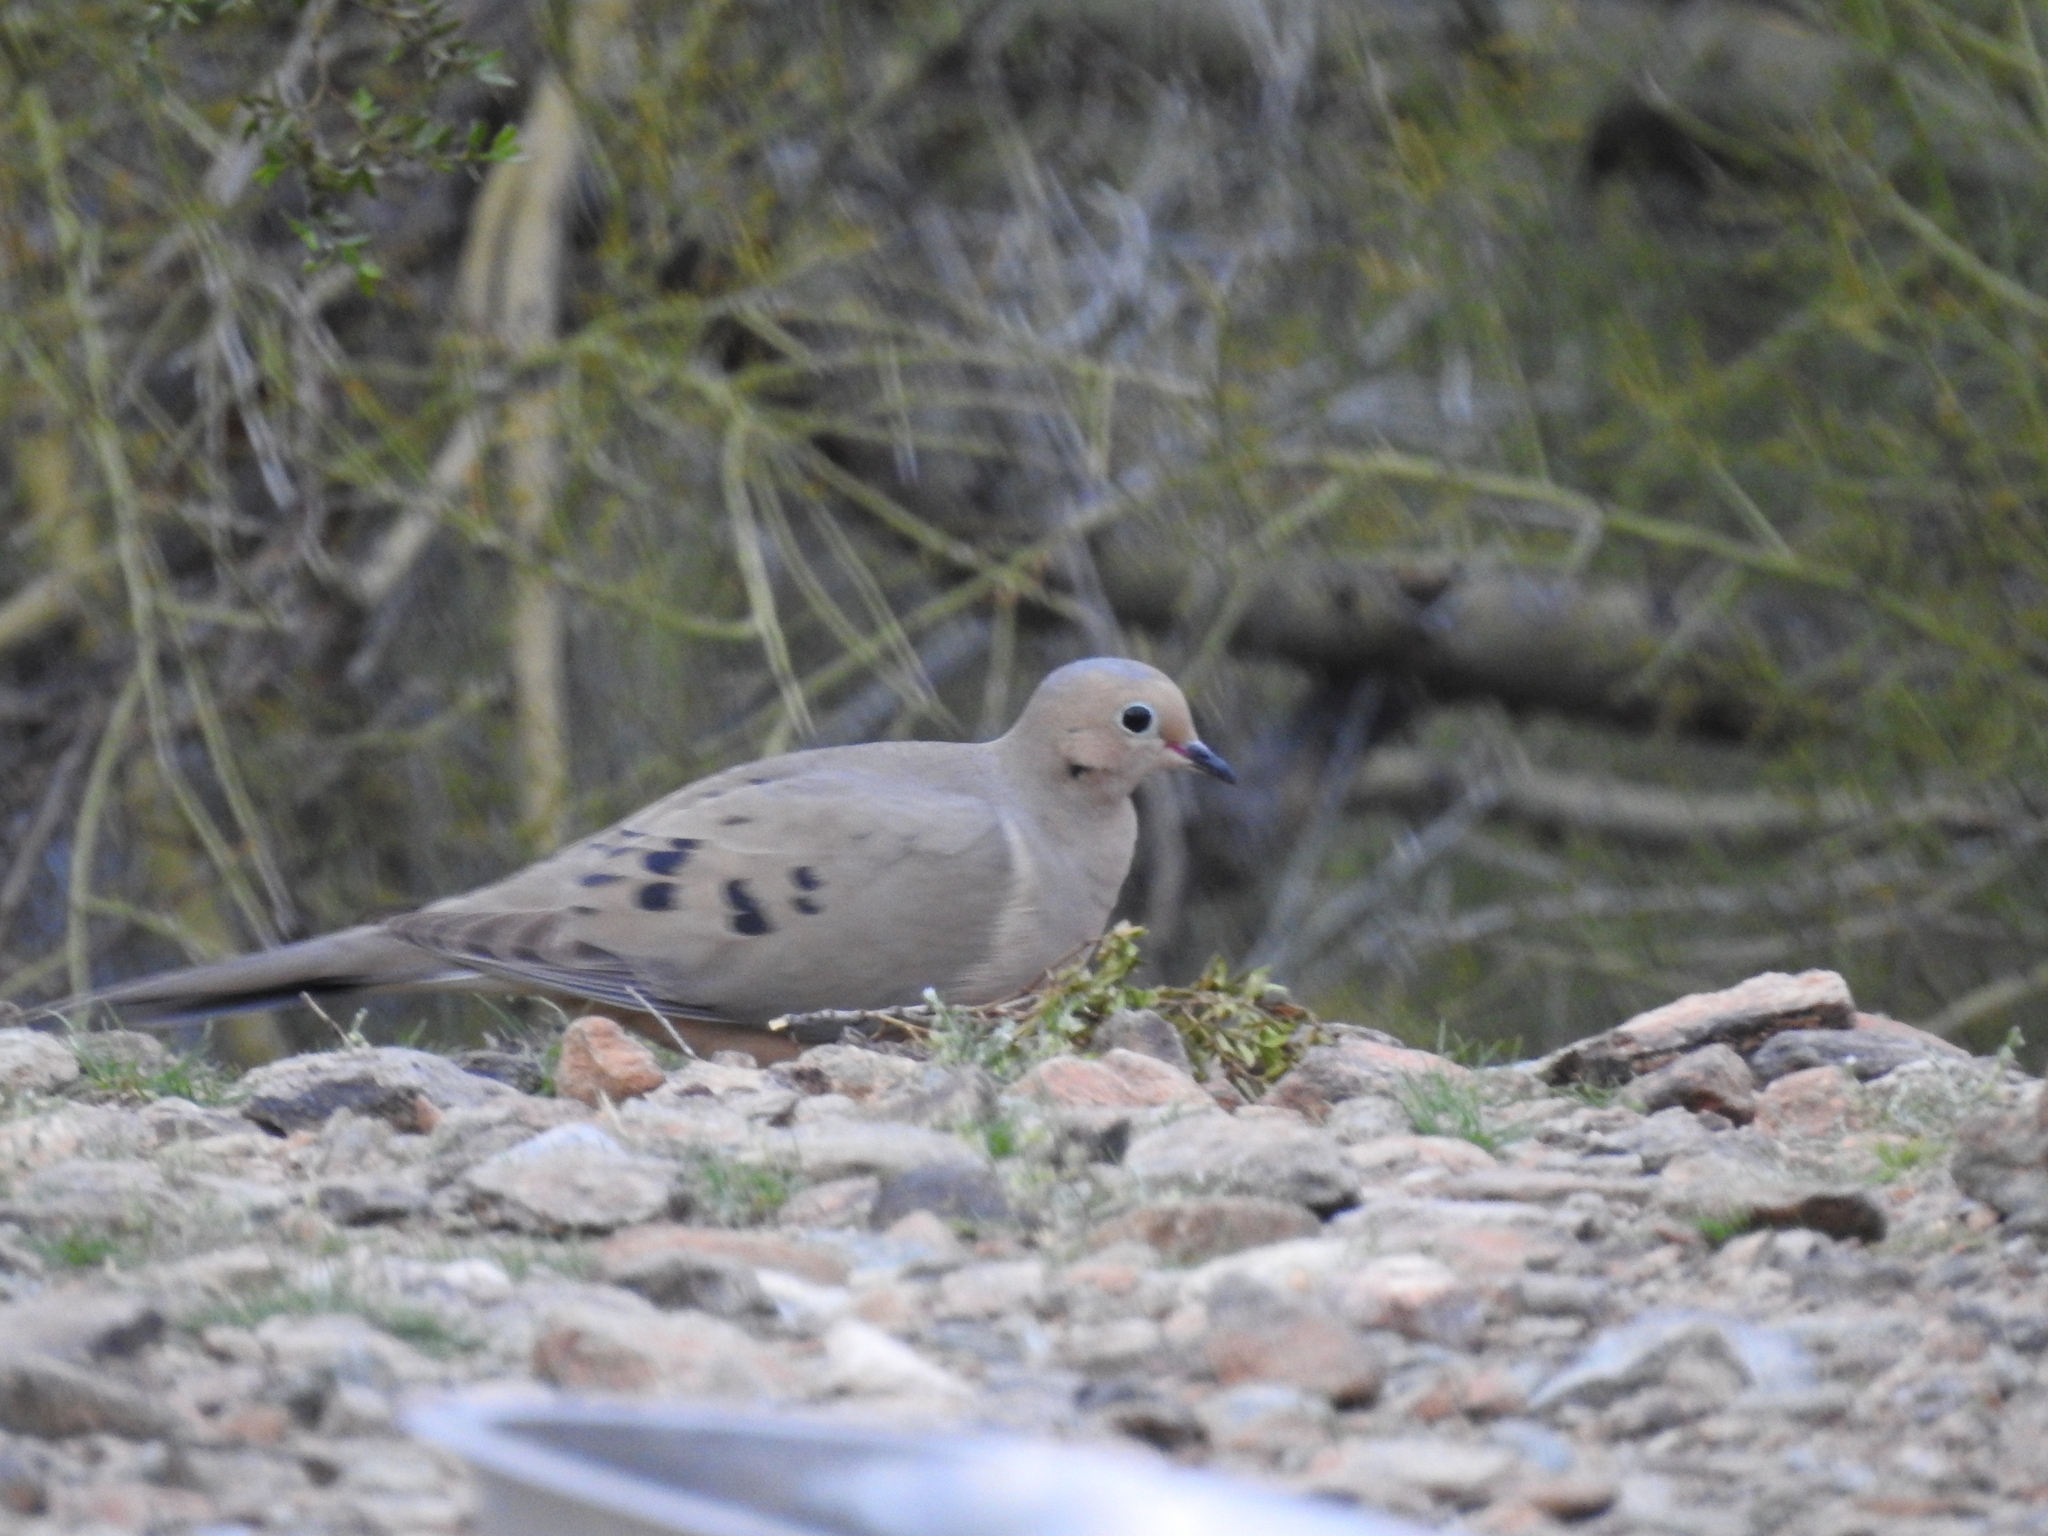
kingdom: Animalia
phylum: Chordata
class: Aves
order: Columbiformes
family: Columbidae
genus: Zenaida
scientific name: Zenaida macroura
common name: Mourning dove
